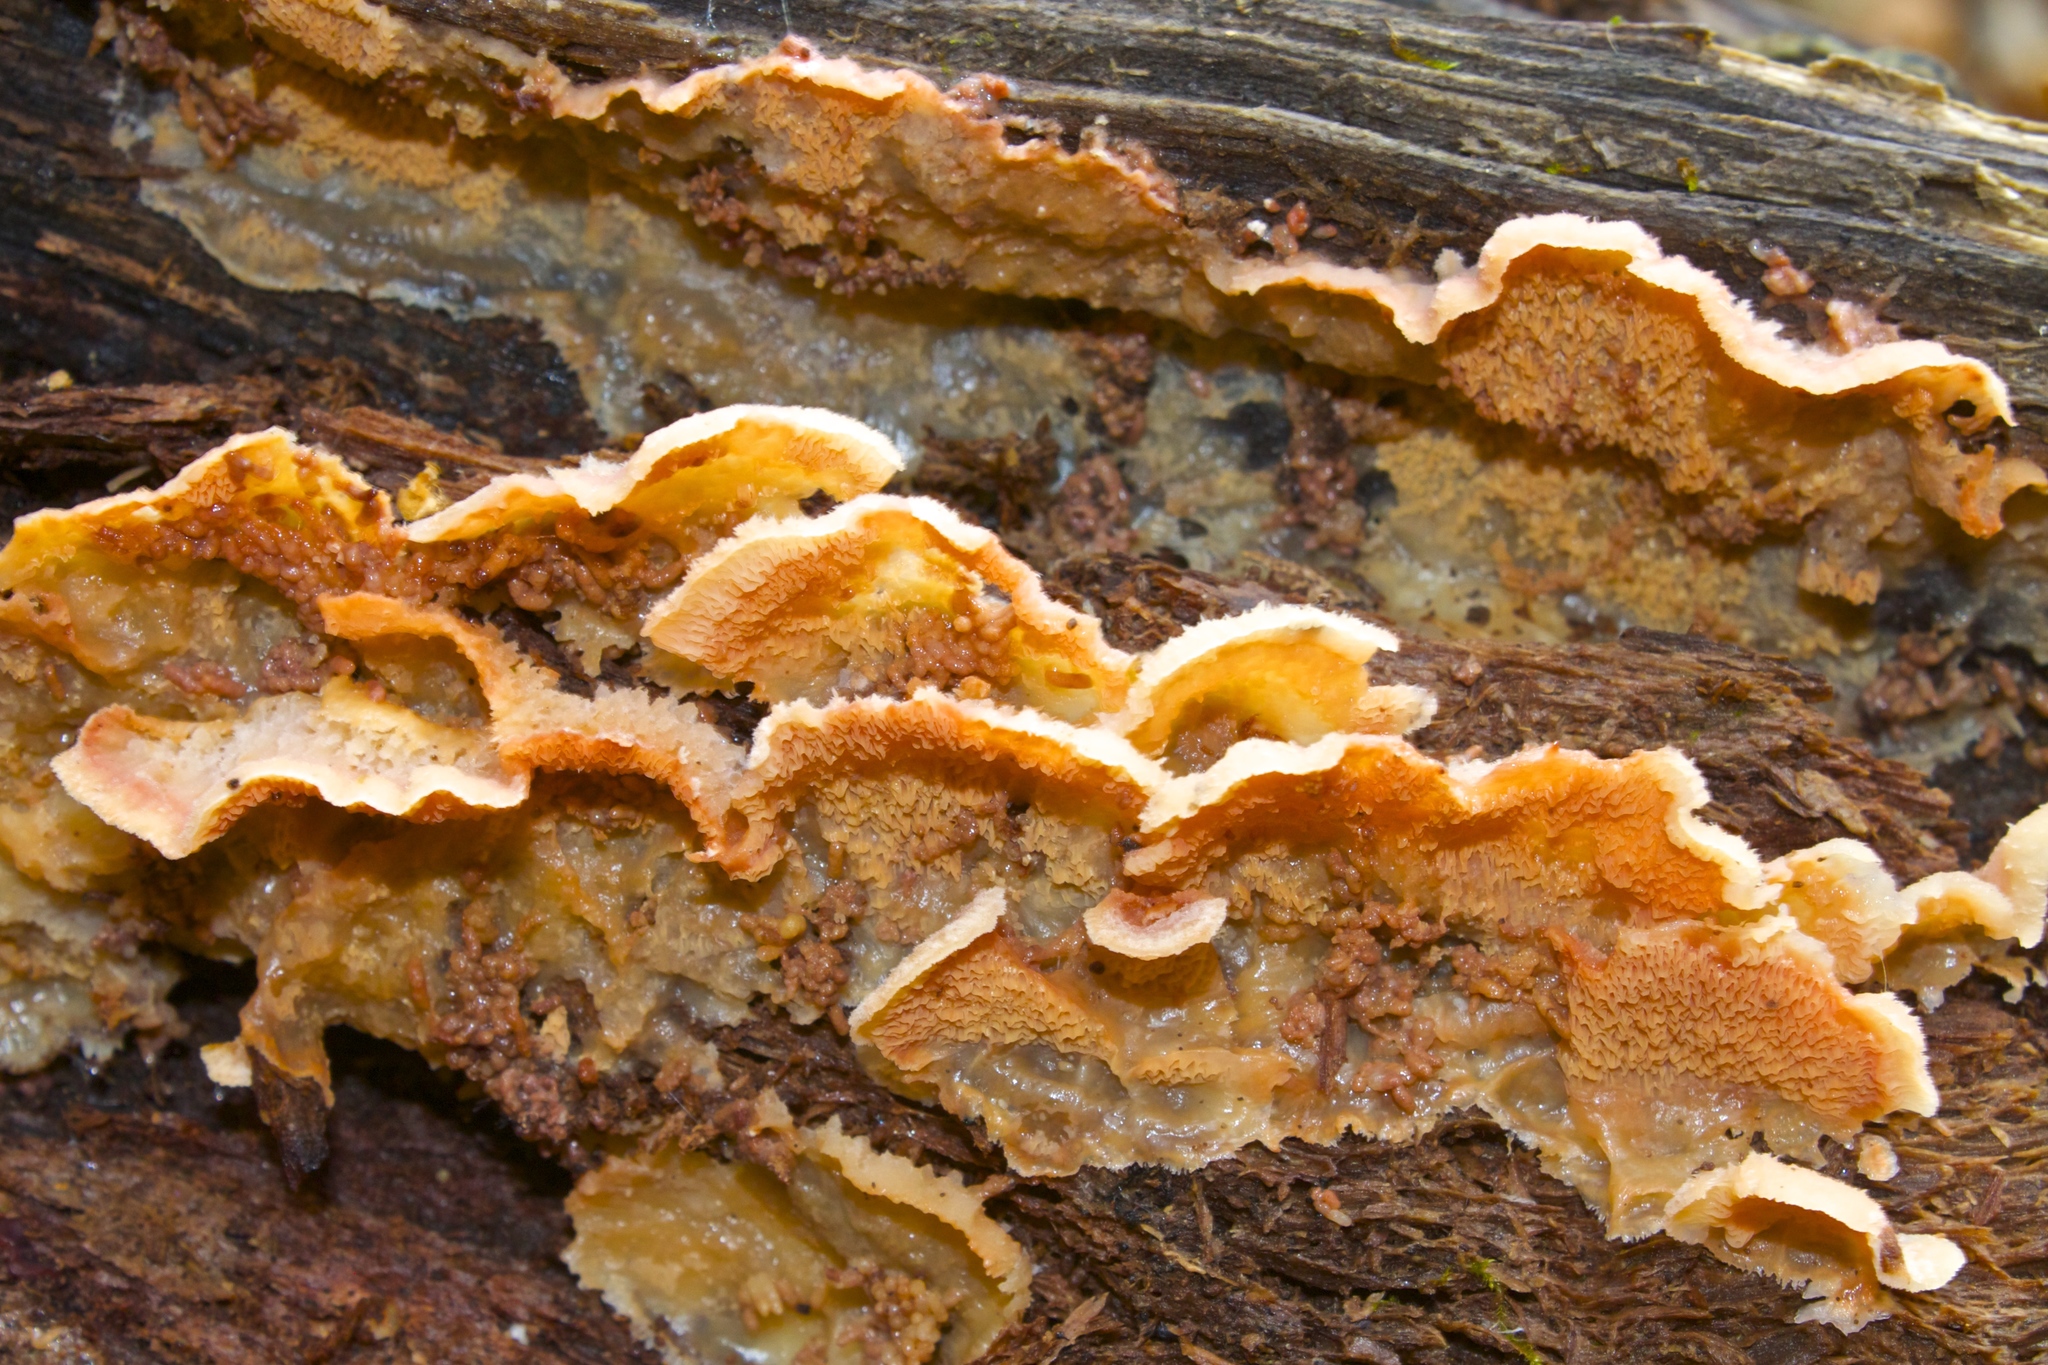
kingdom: Fungi
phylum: Basidiomycota
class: Agaricomycetes
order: Polyporales
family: Meruliaceae
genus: Phlebia
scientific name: Phlebia tremellosa
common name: Jelly rot
